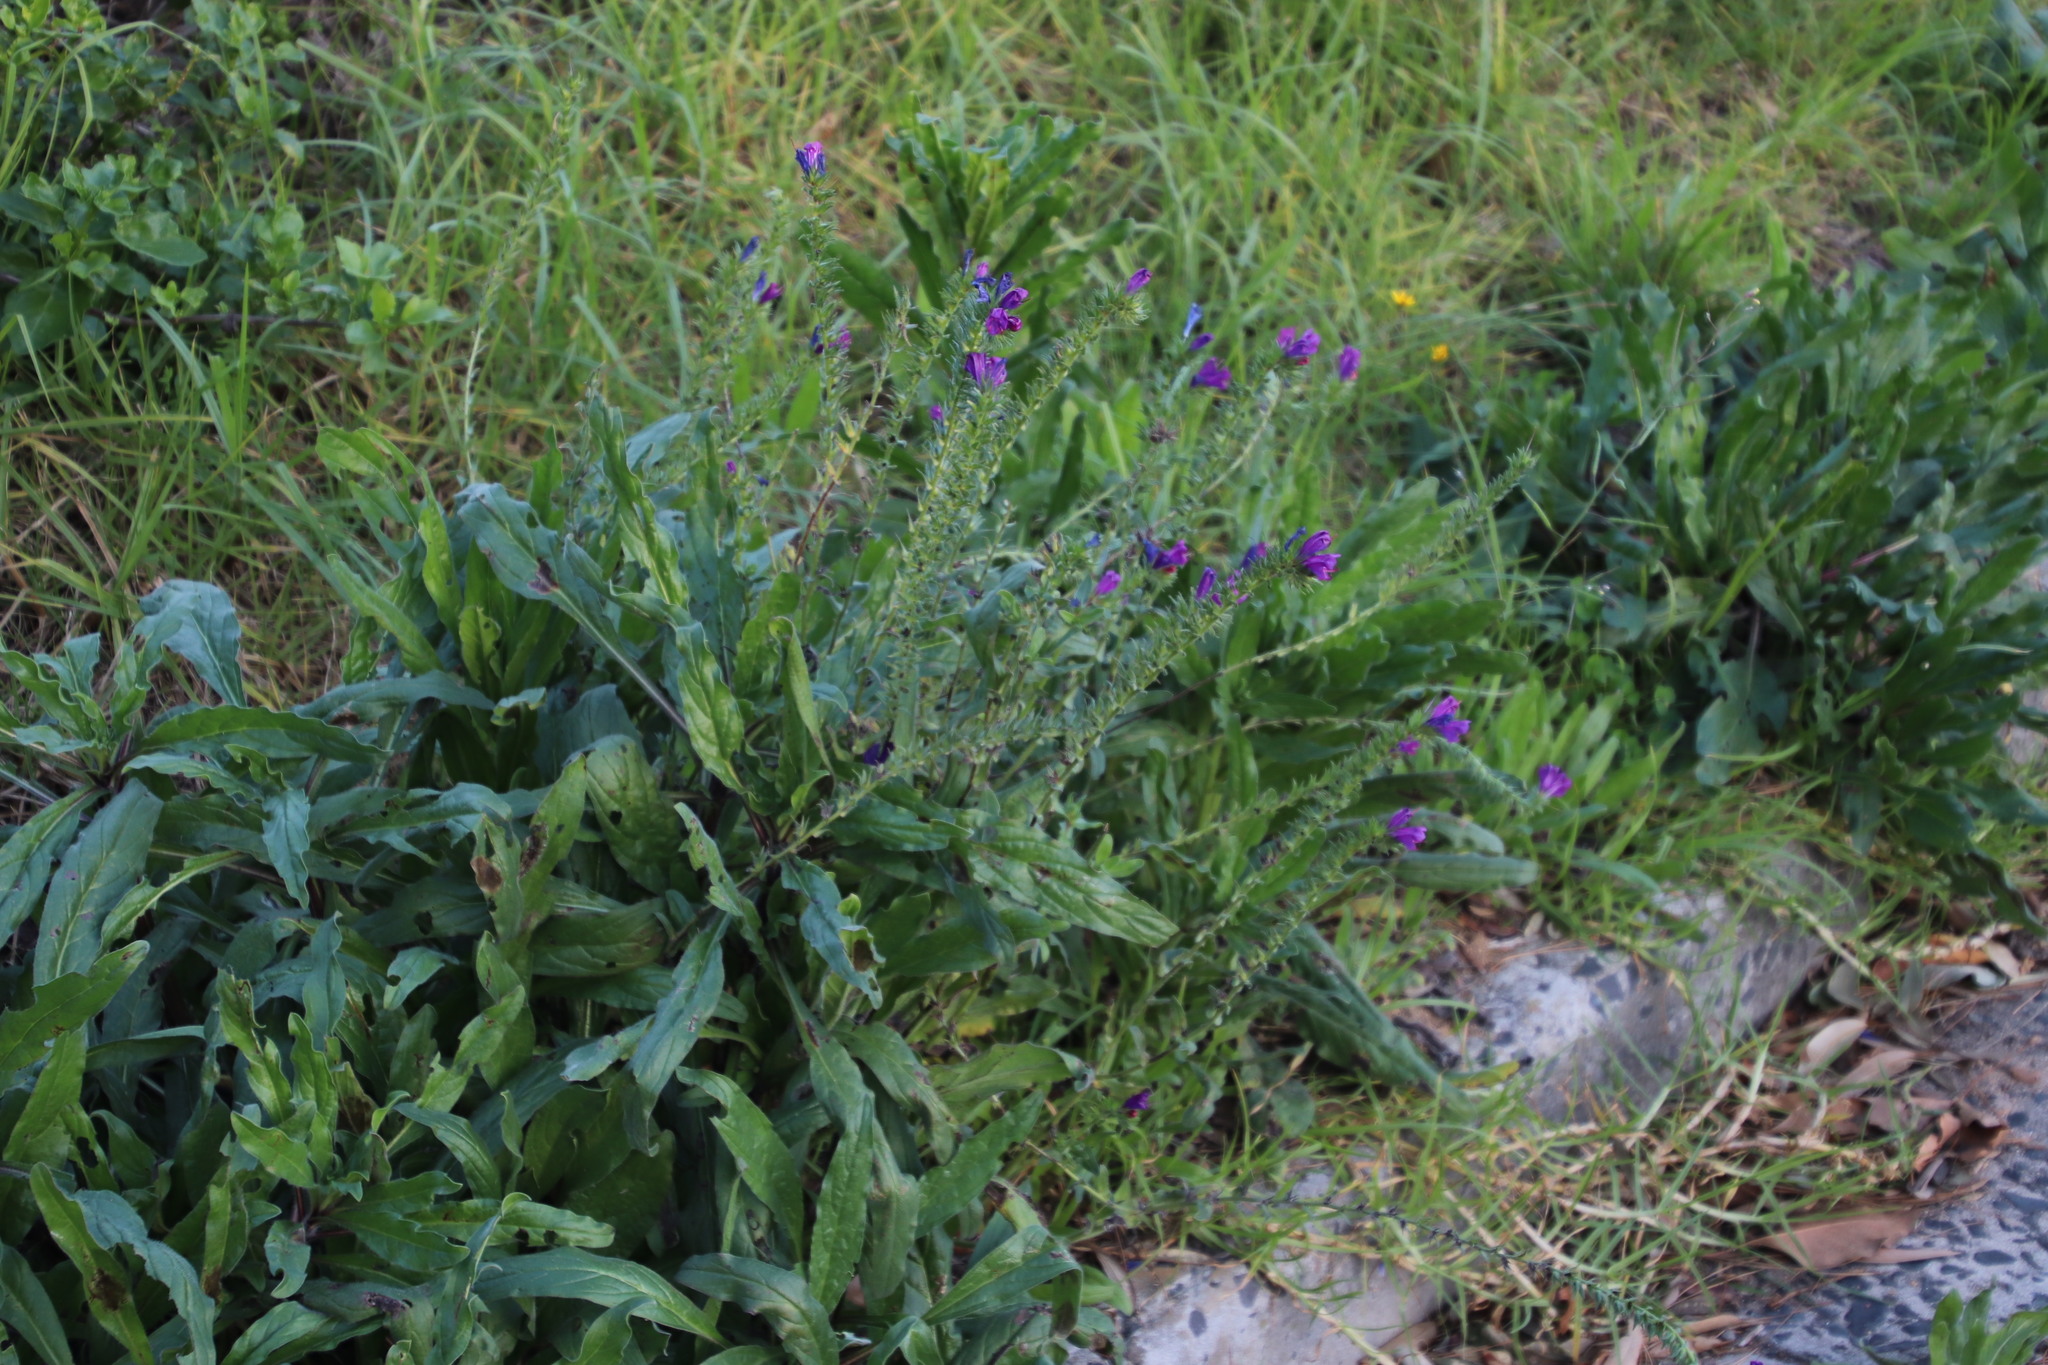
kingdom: Plantae
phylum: Tracheophyta
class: Magnoliopsida
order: Boraginales
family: Boraginaceae
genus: Echium
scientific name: Echium plantagineum
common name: Purple viper's-bugloss
